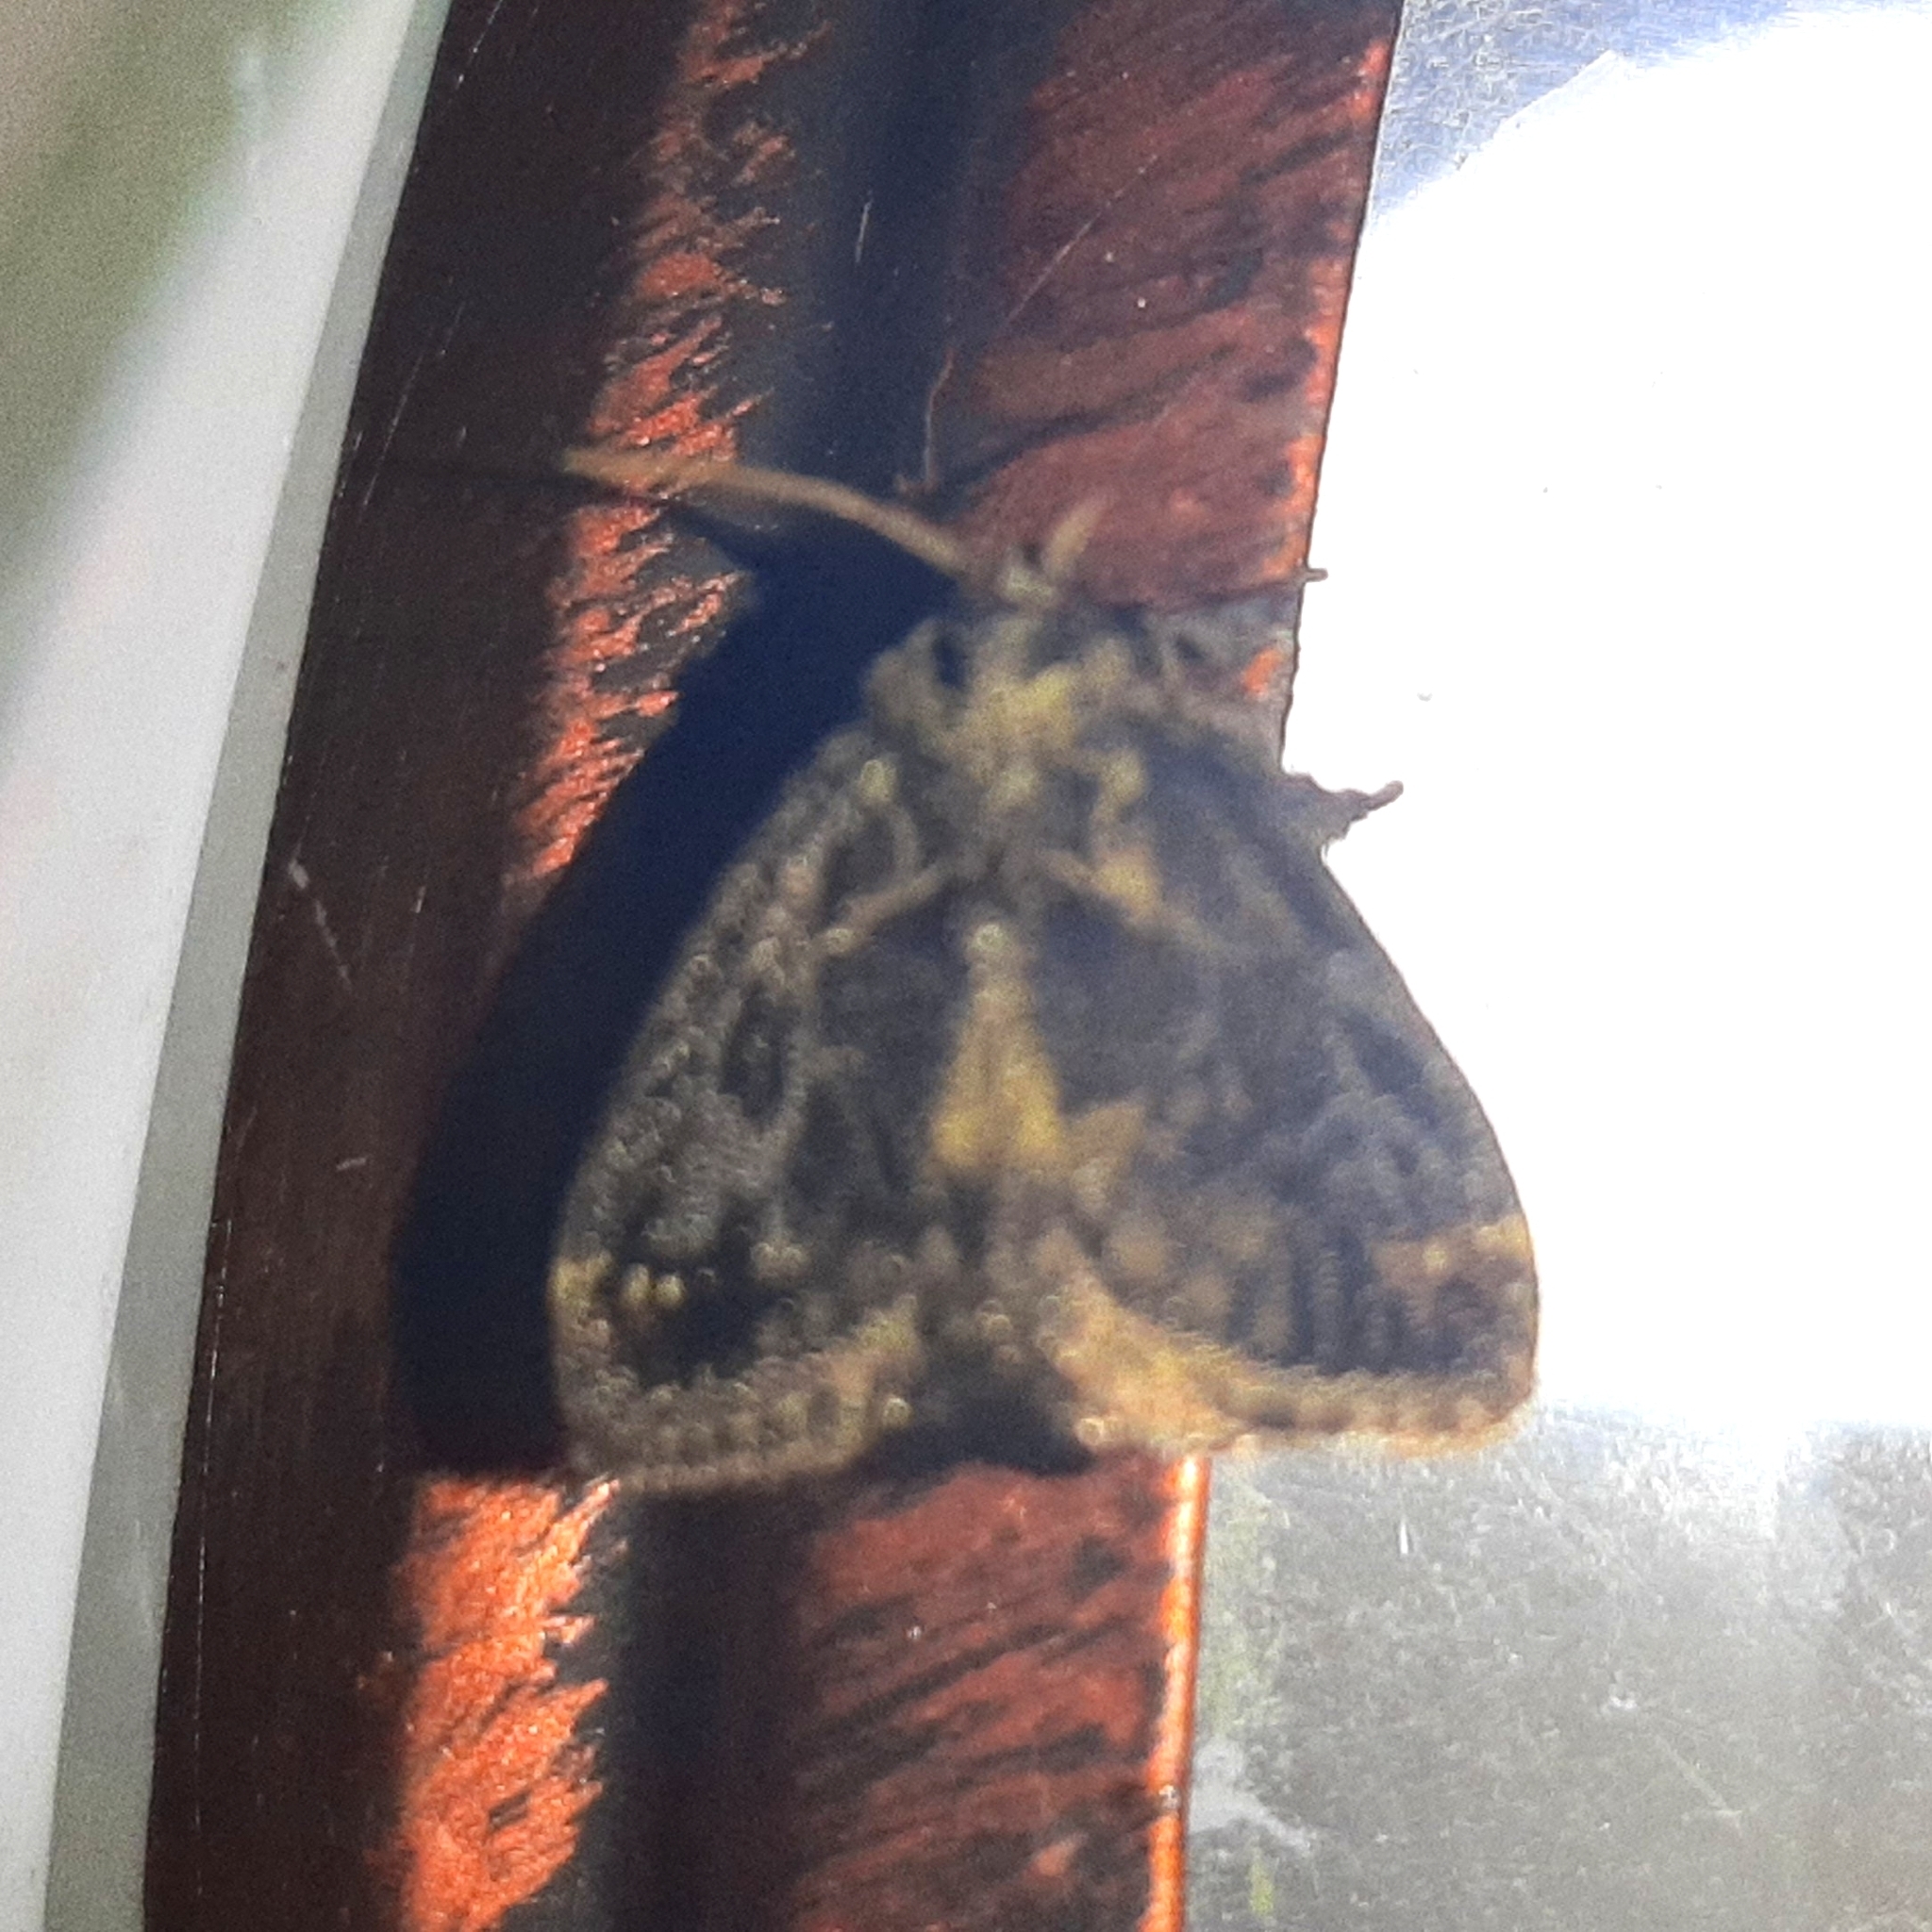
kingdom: Animalia
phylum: Arthropoda
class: Insecta
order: Lepidoptera
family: Limacodidae
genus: Euclea
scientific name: Euclea costaricana
